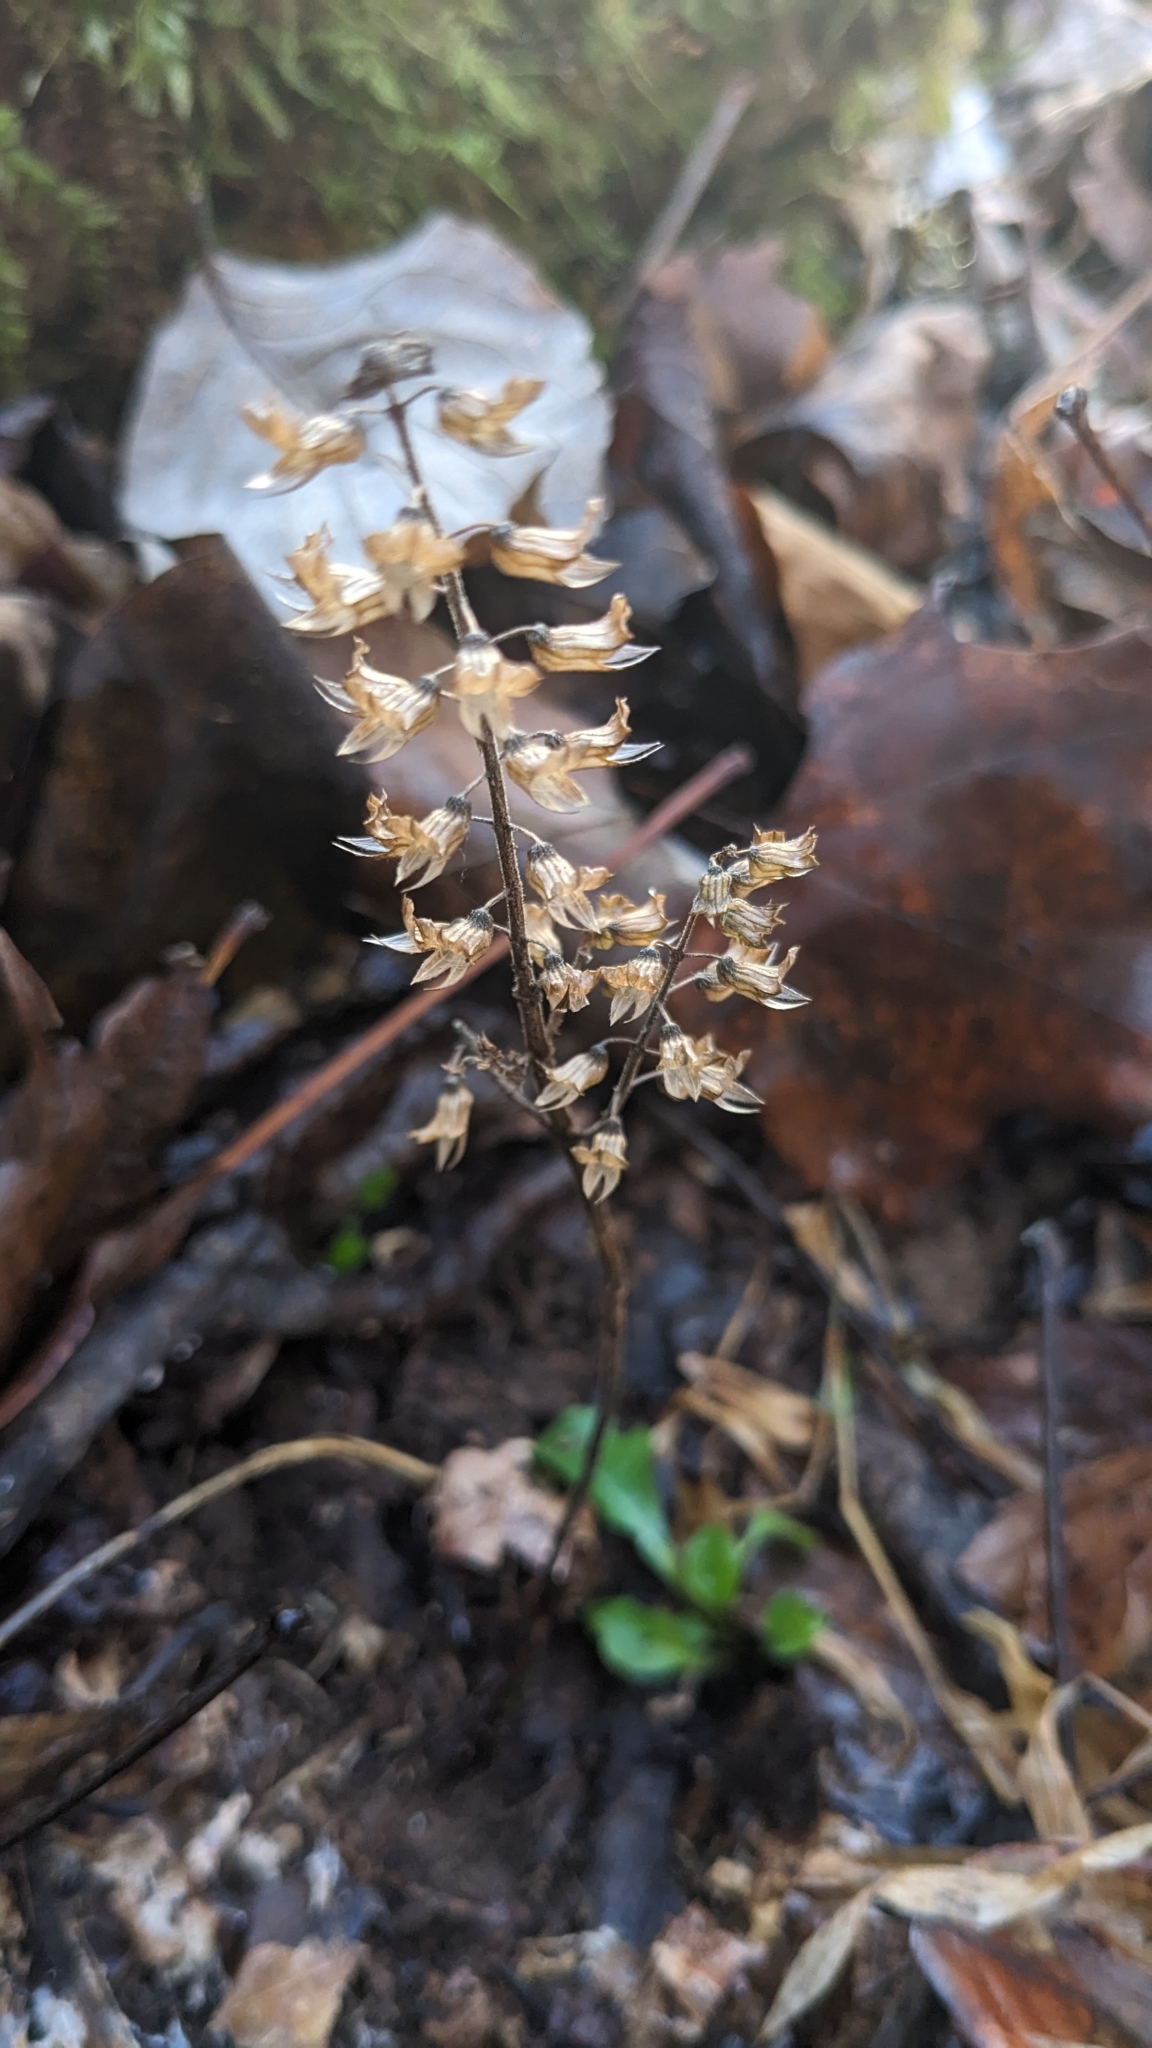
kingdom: Plantae
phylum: Tracheophyta
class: Magnoliopsida
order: Lamiales
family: Lamiaceae
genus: Perilla
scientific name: Perilla frutescens
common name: Perilla
